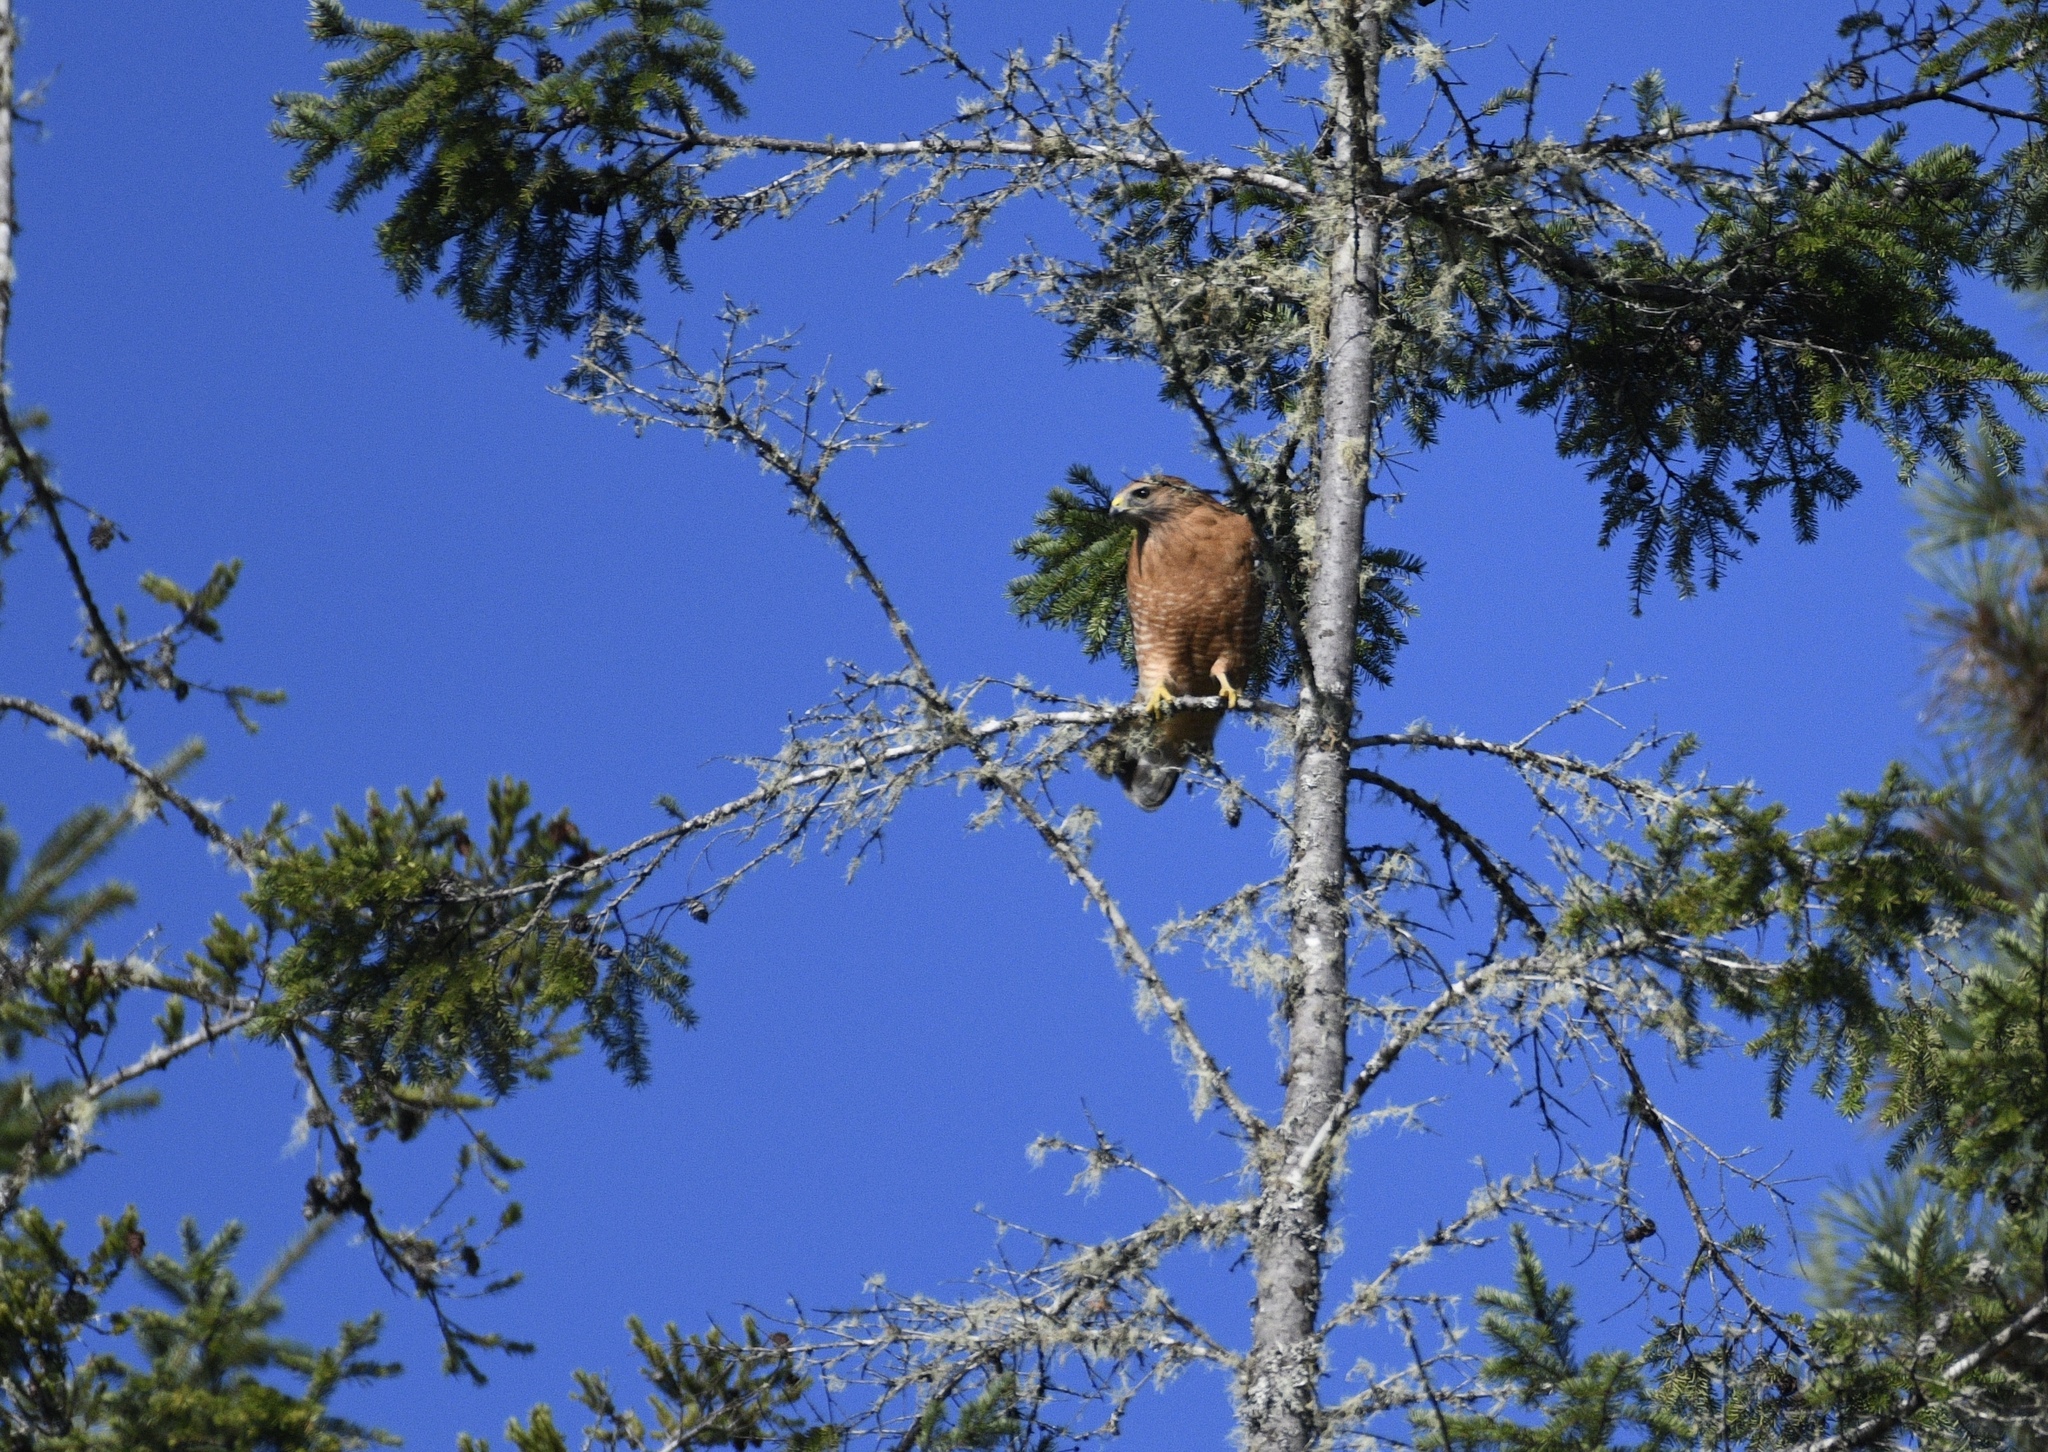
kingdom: Animalia
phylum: Chordata
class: Aves
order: Accipitriformes
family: Accipitridae
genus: Buteo
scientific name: Buteo lineatus
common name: Red-shouldered hawk
